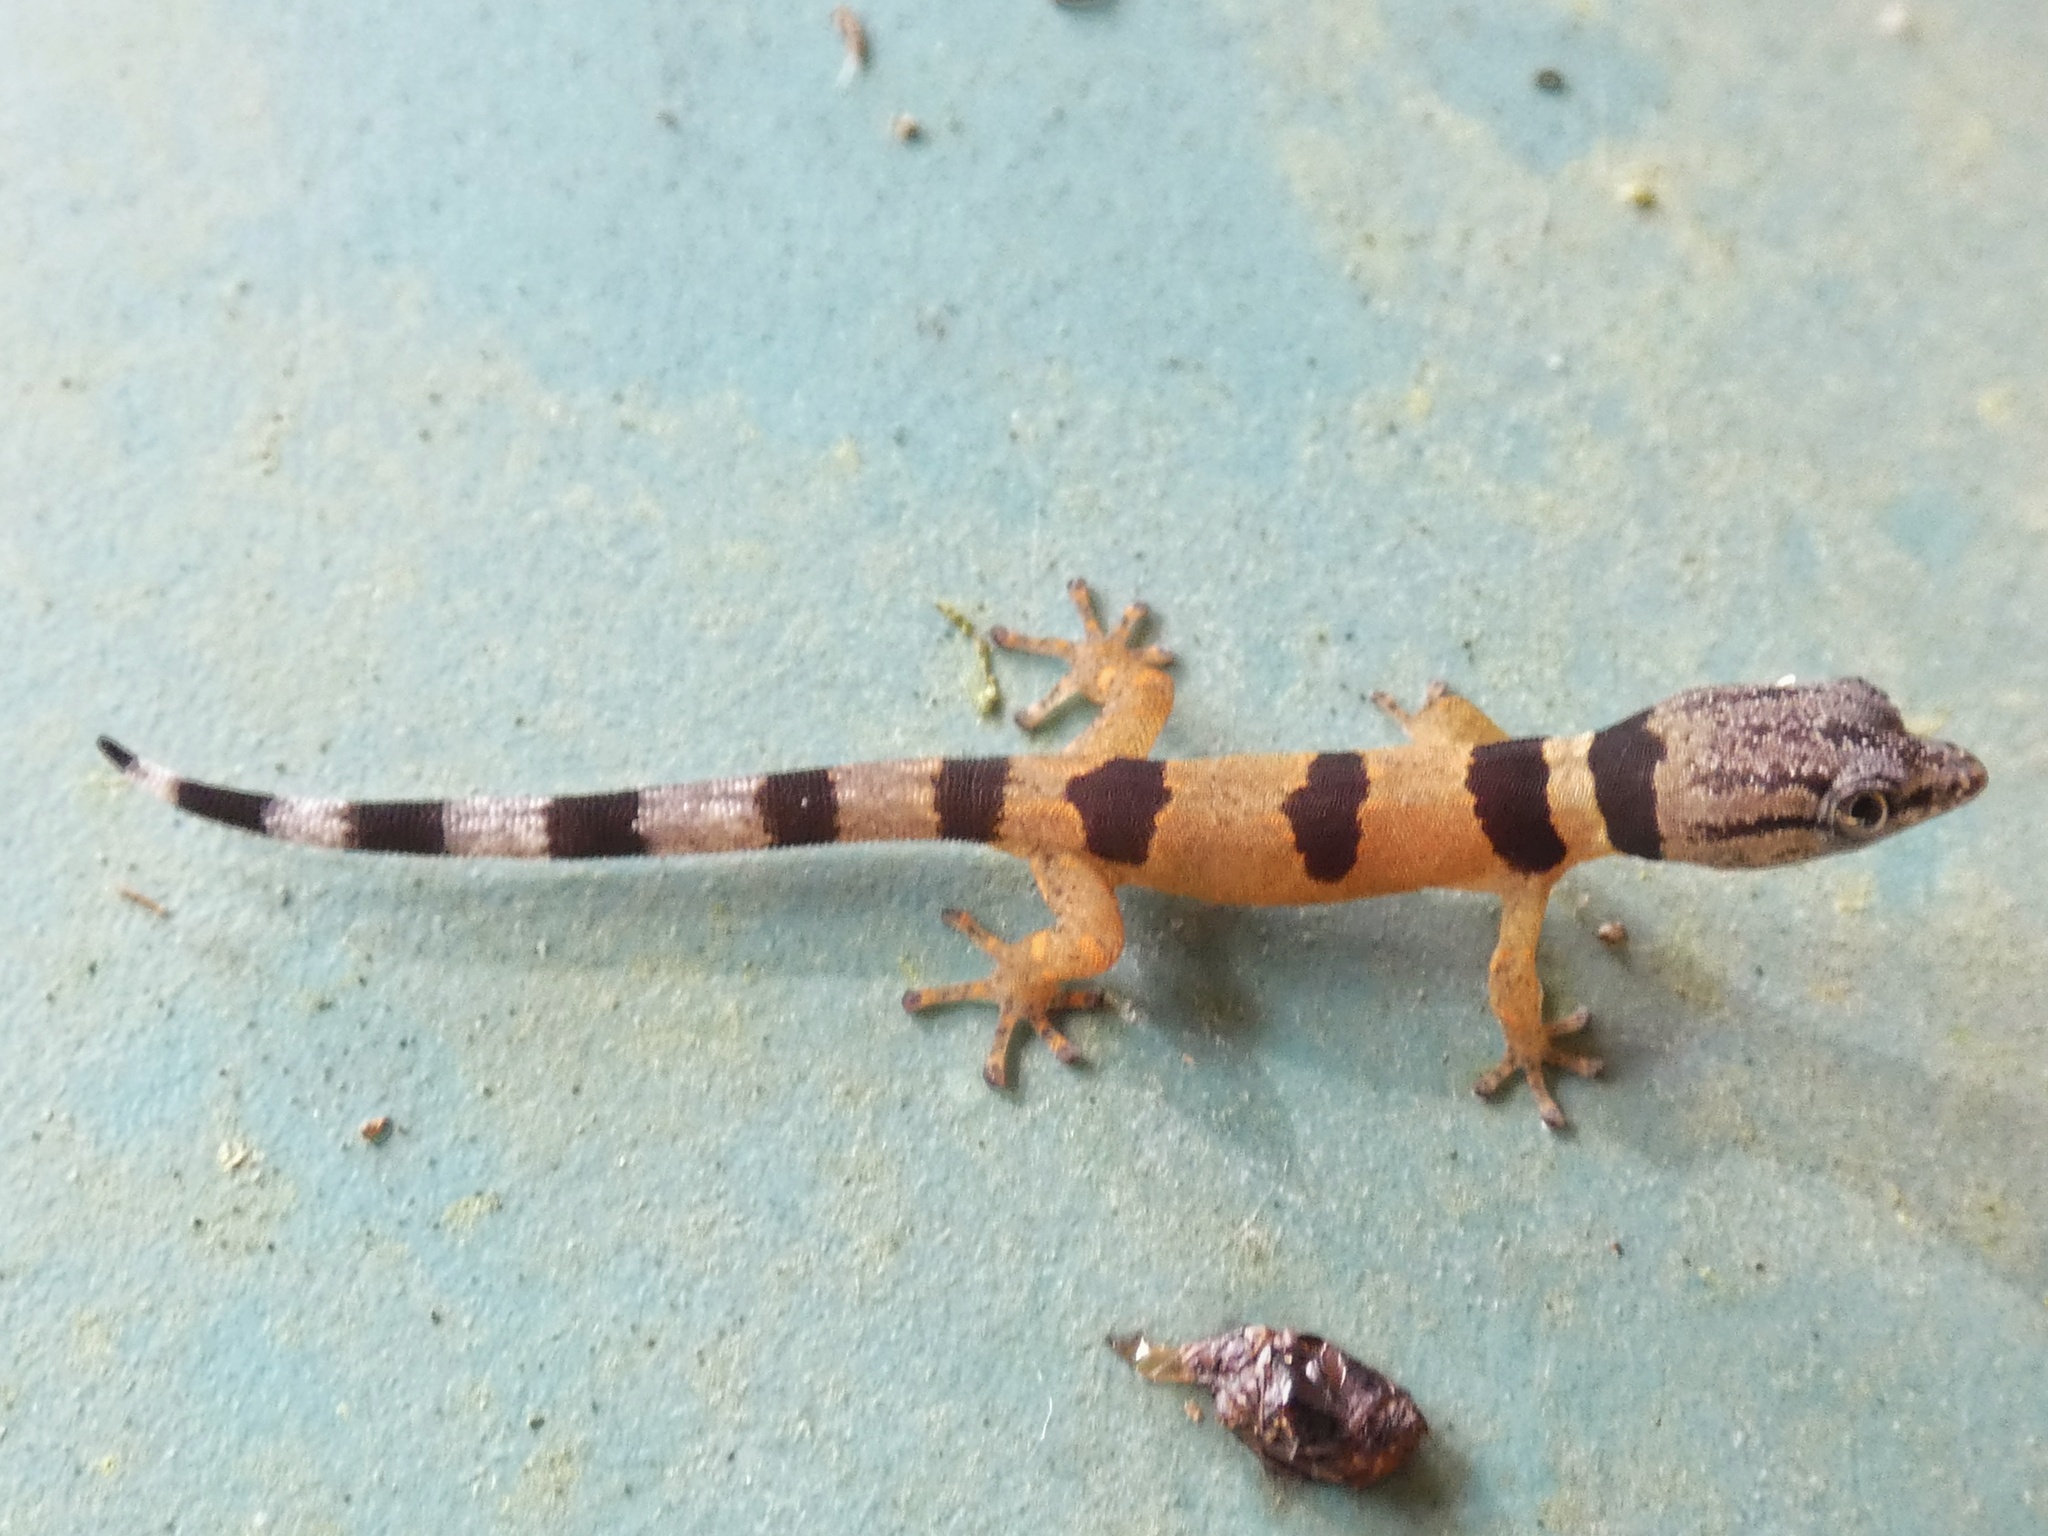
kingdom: Animalia
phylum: Chordata
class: Squamata
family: Sphaerodactylidae
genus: Sphaerodactylus
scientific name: Sphaerodactylus homolepis
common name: Caribbean least gecko
